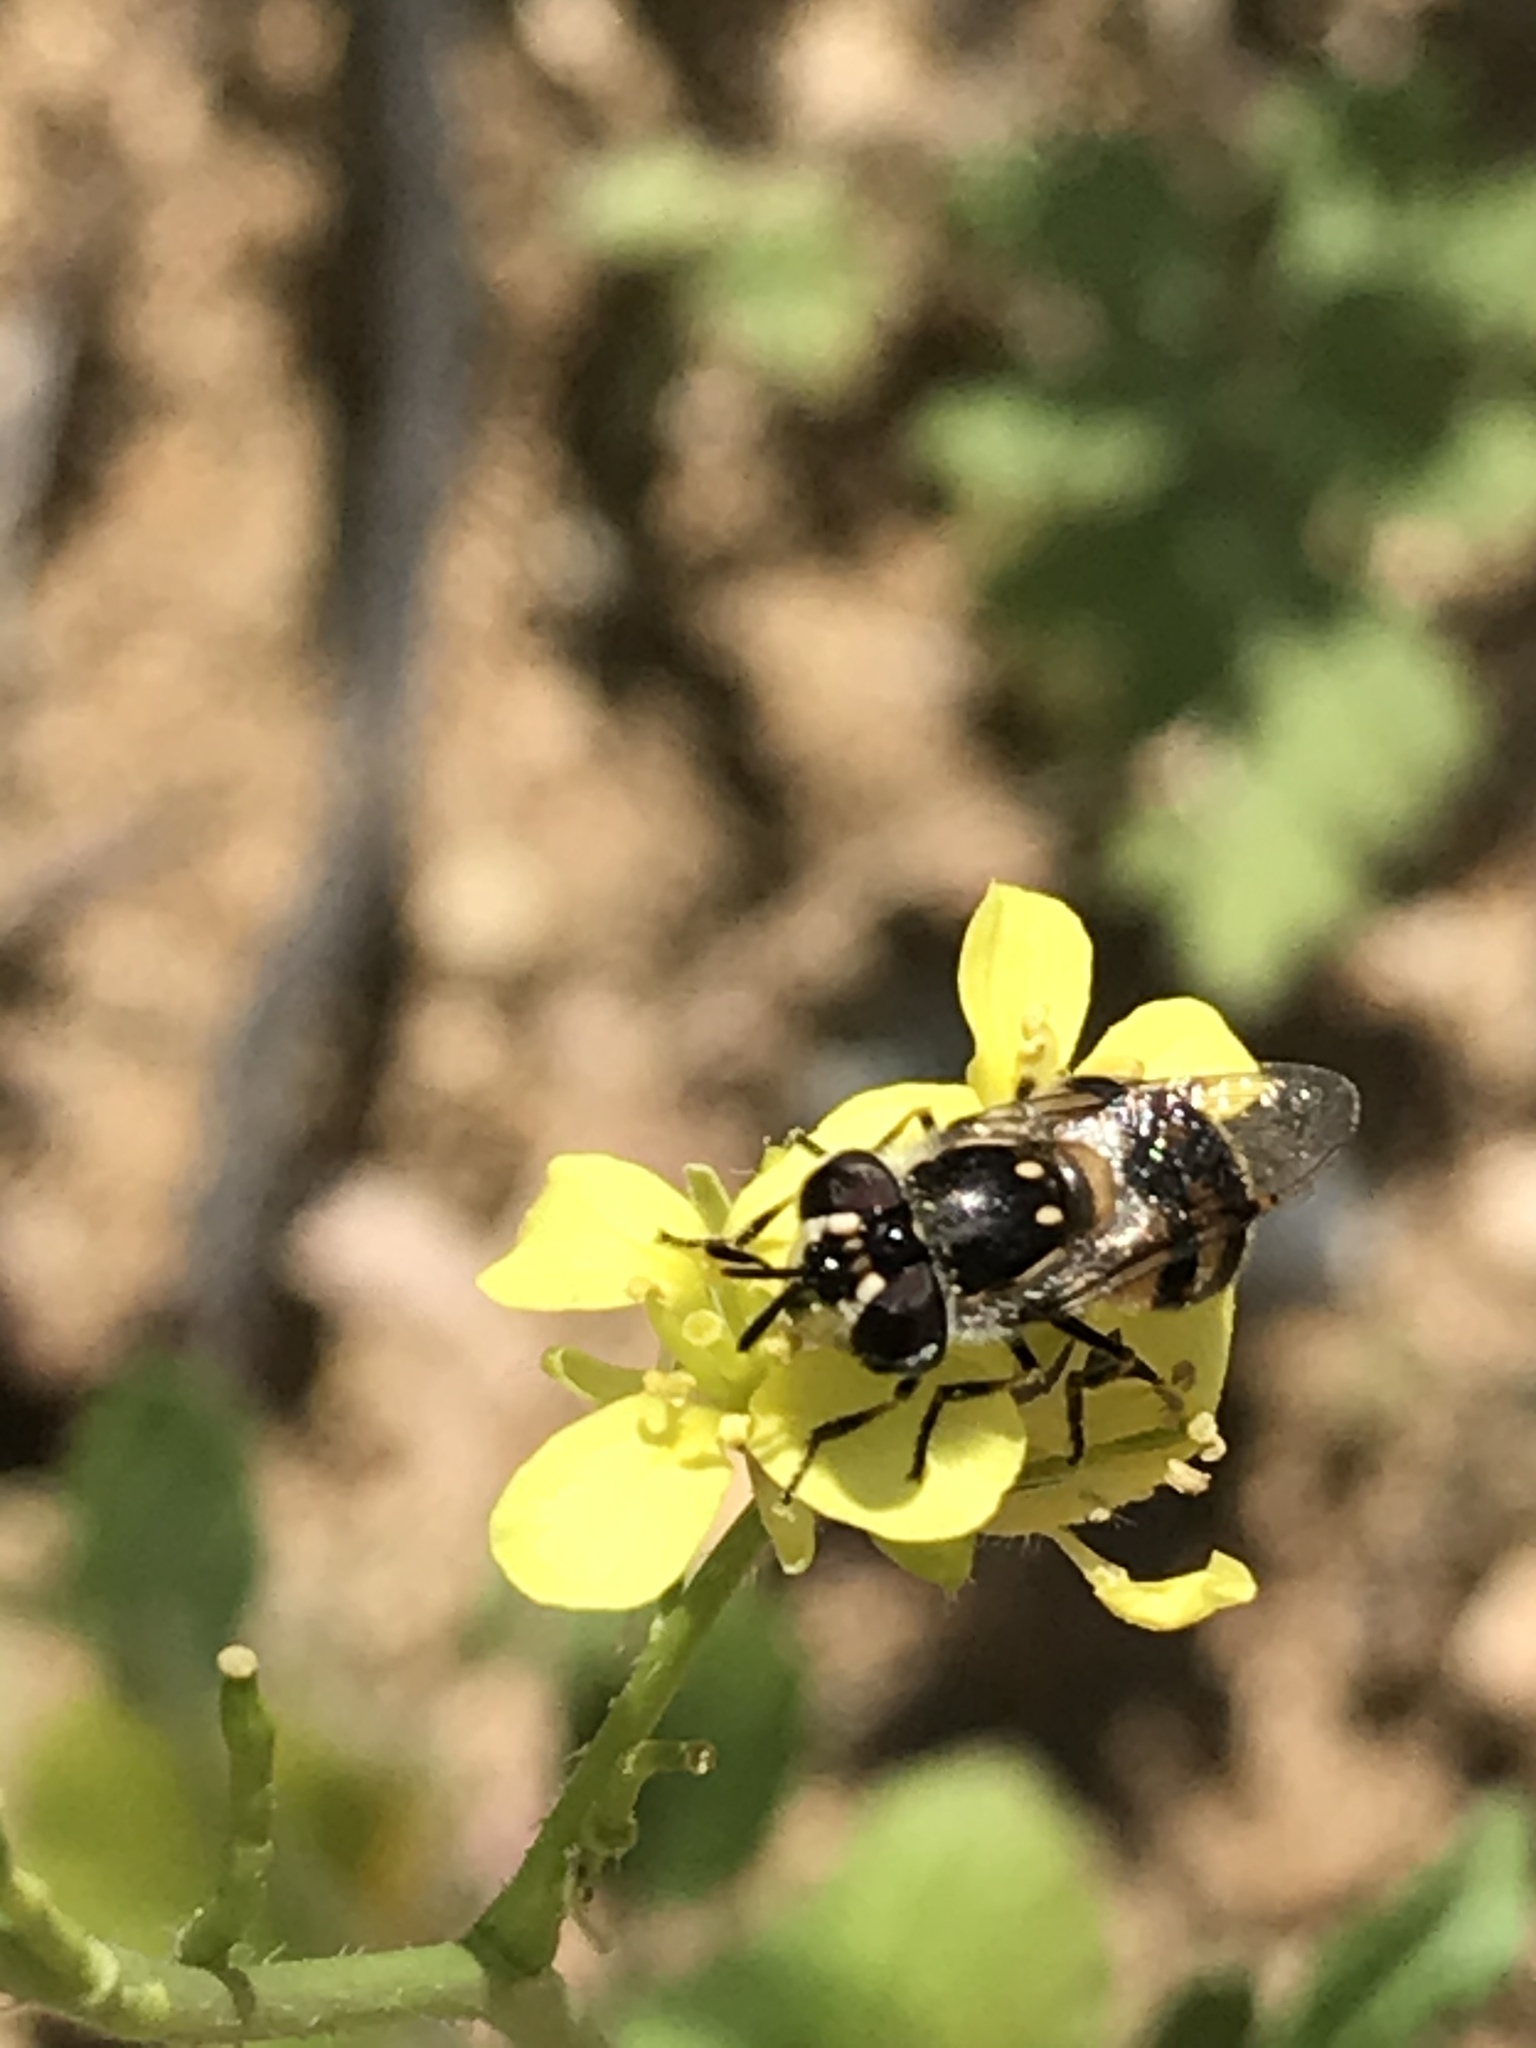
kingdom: Animalia
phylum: Arthropoda
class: Insecta
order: Diptera
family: Syrphidae
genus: Copestylum
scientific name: Copestylum marginatum
